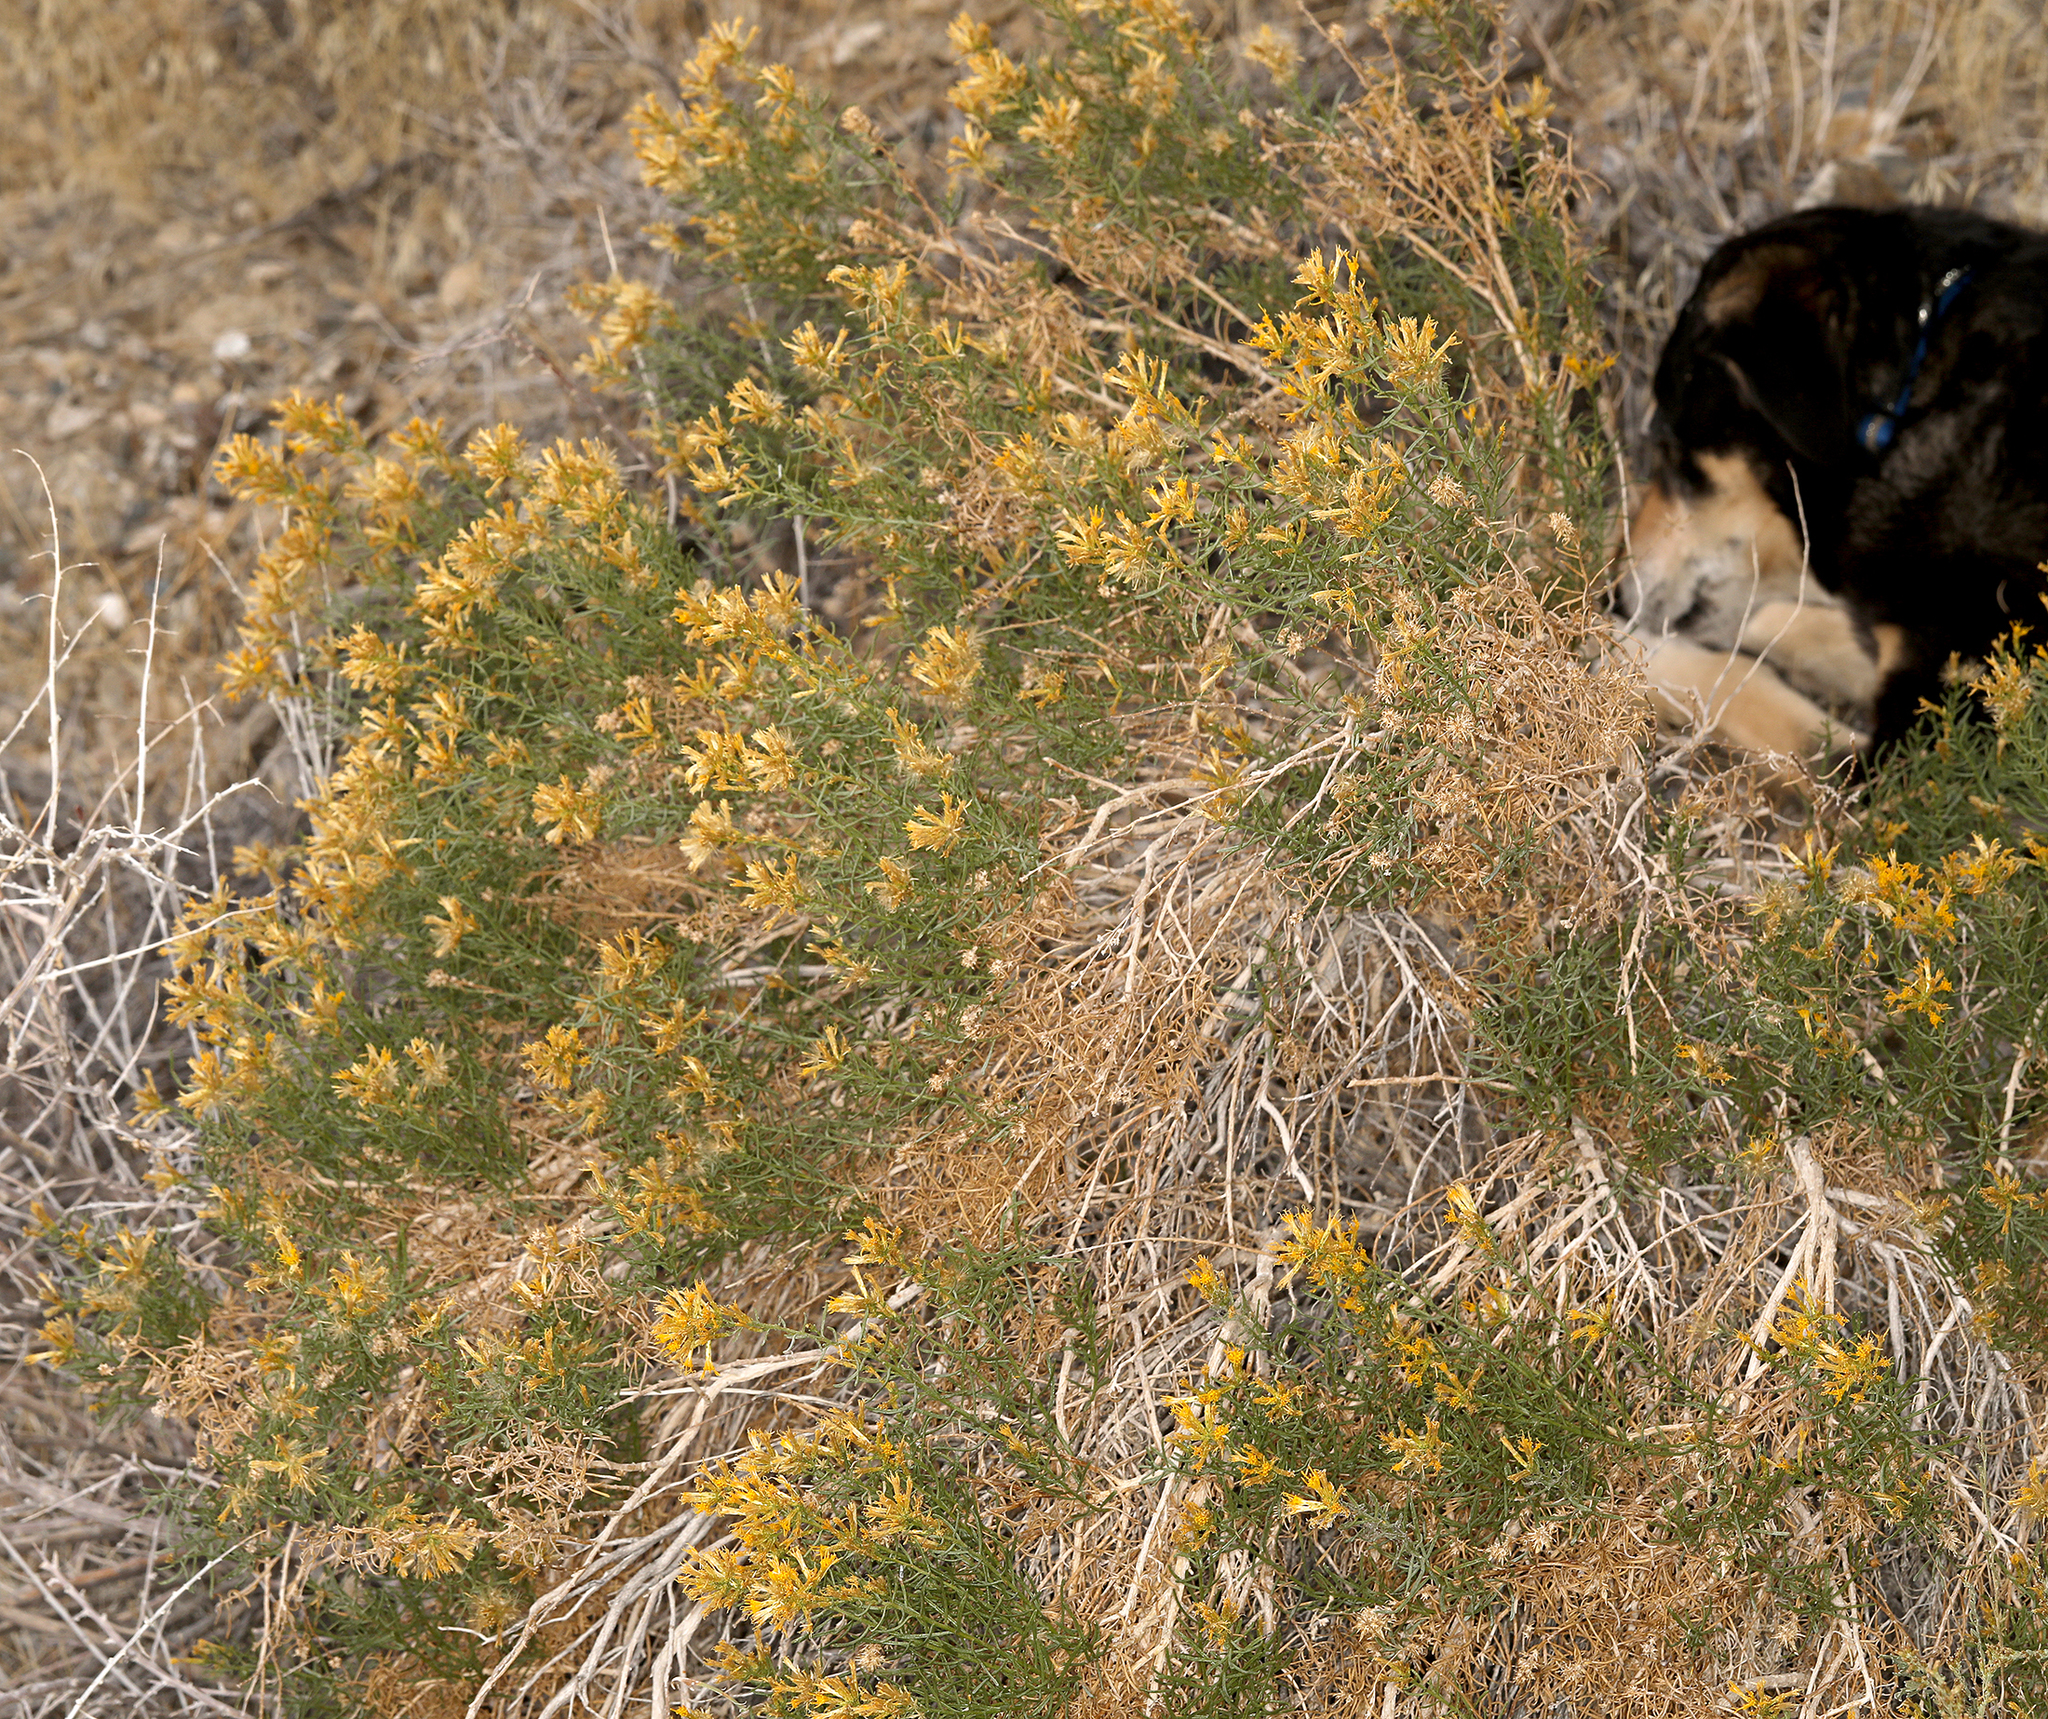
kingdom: Plantae
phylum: Tracheophyta
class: Magnoliopsida
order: Asterales
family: Asteraceae
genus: Ericameria
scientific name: Ericameria teretifolia
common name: Round-leaf rabbitbrush
